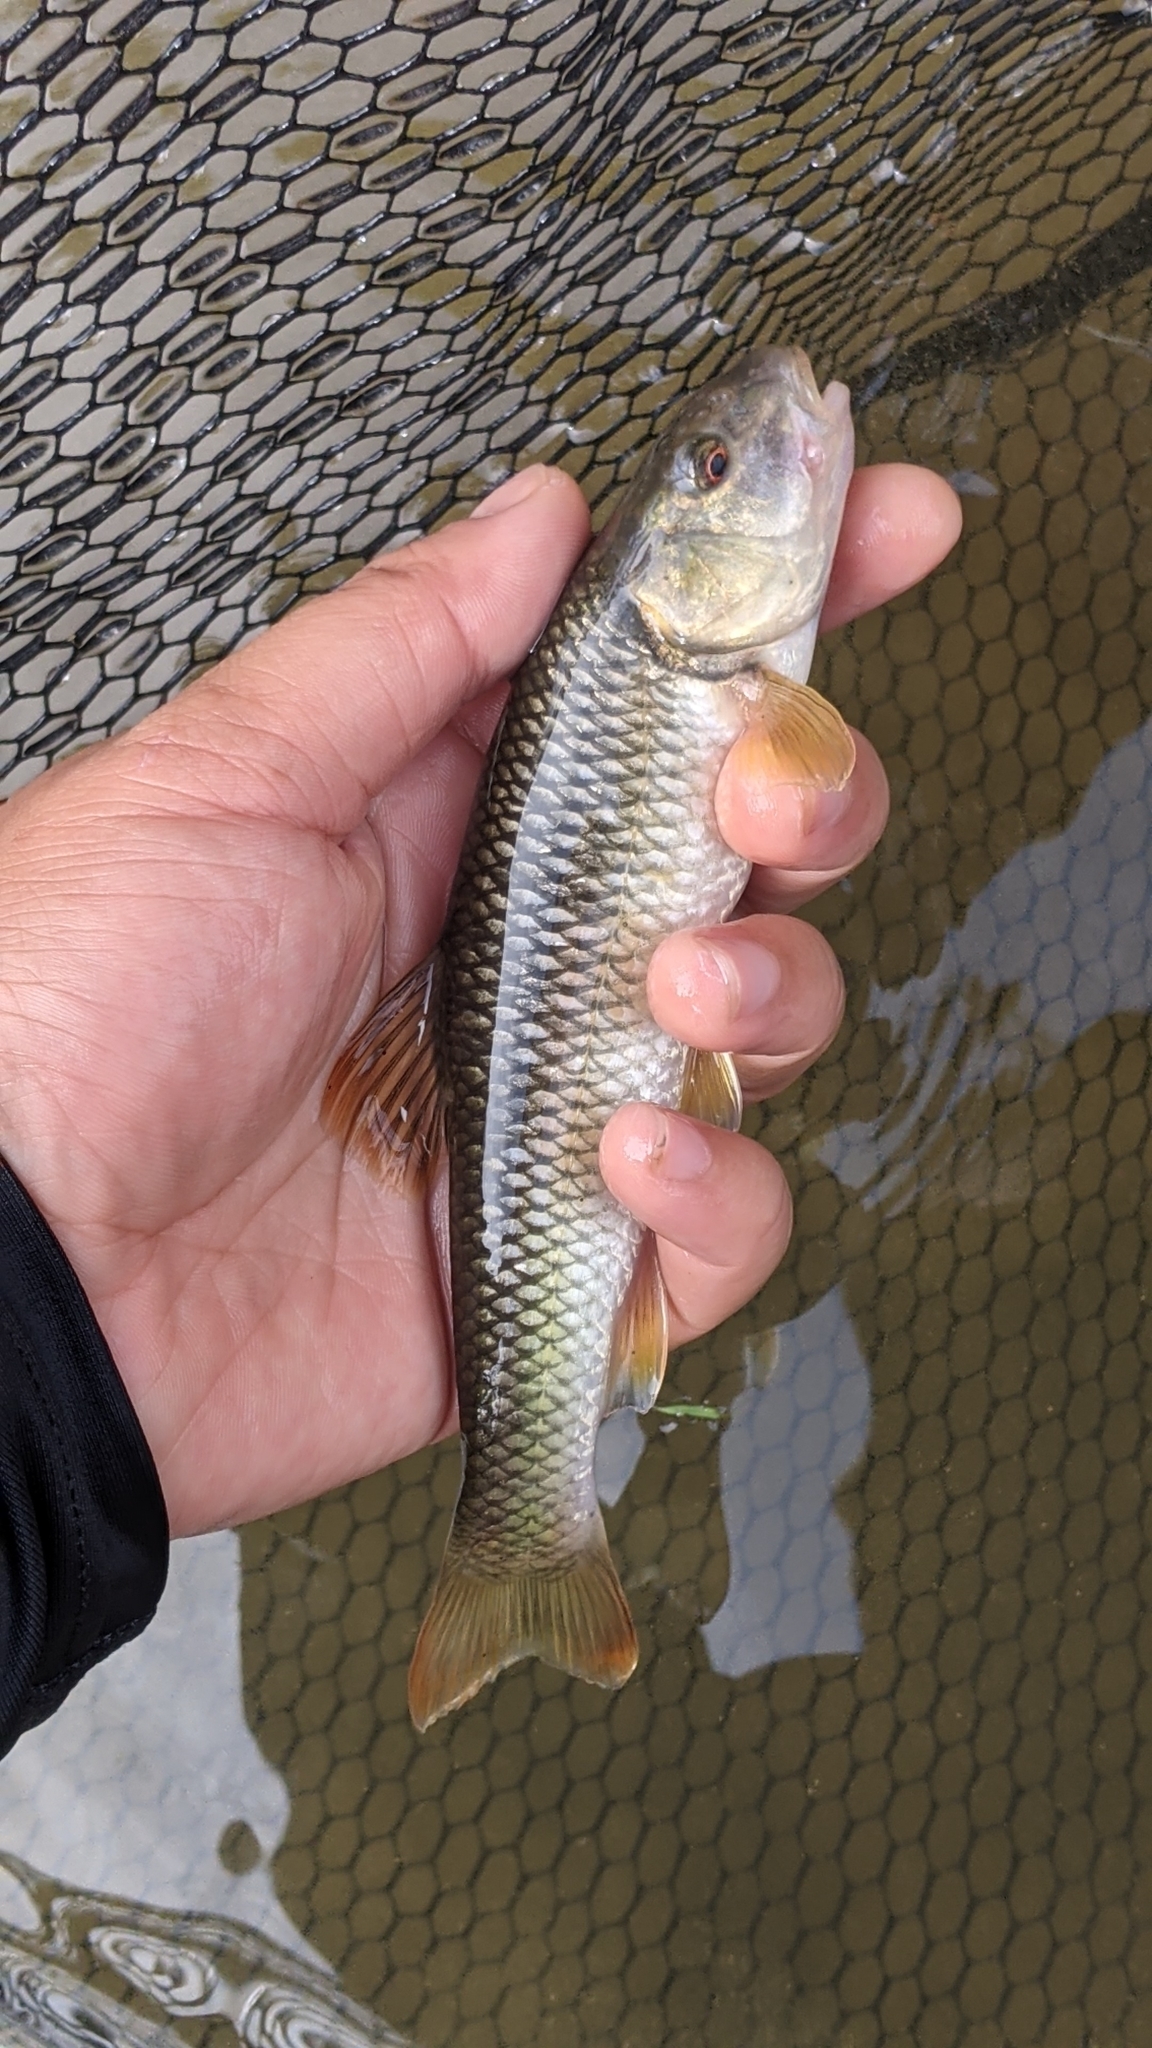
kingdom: Animalia
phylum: Chordata
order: Cypriniformes
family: Cyprinidae
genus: Nocomis
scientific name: Nocomis leptocephalus
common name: Bluehead chub
